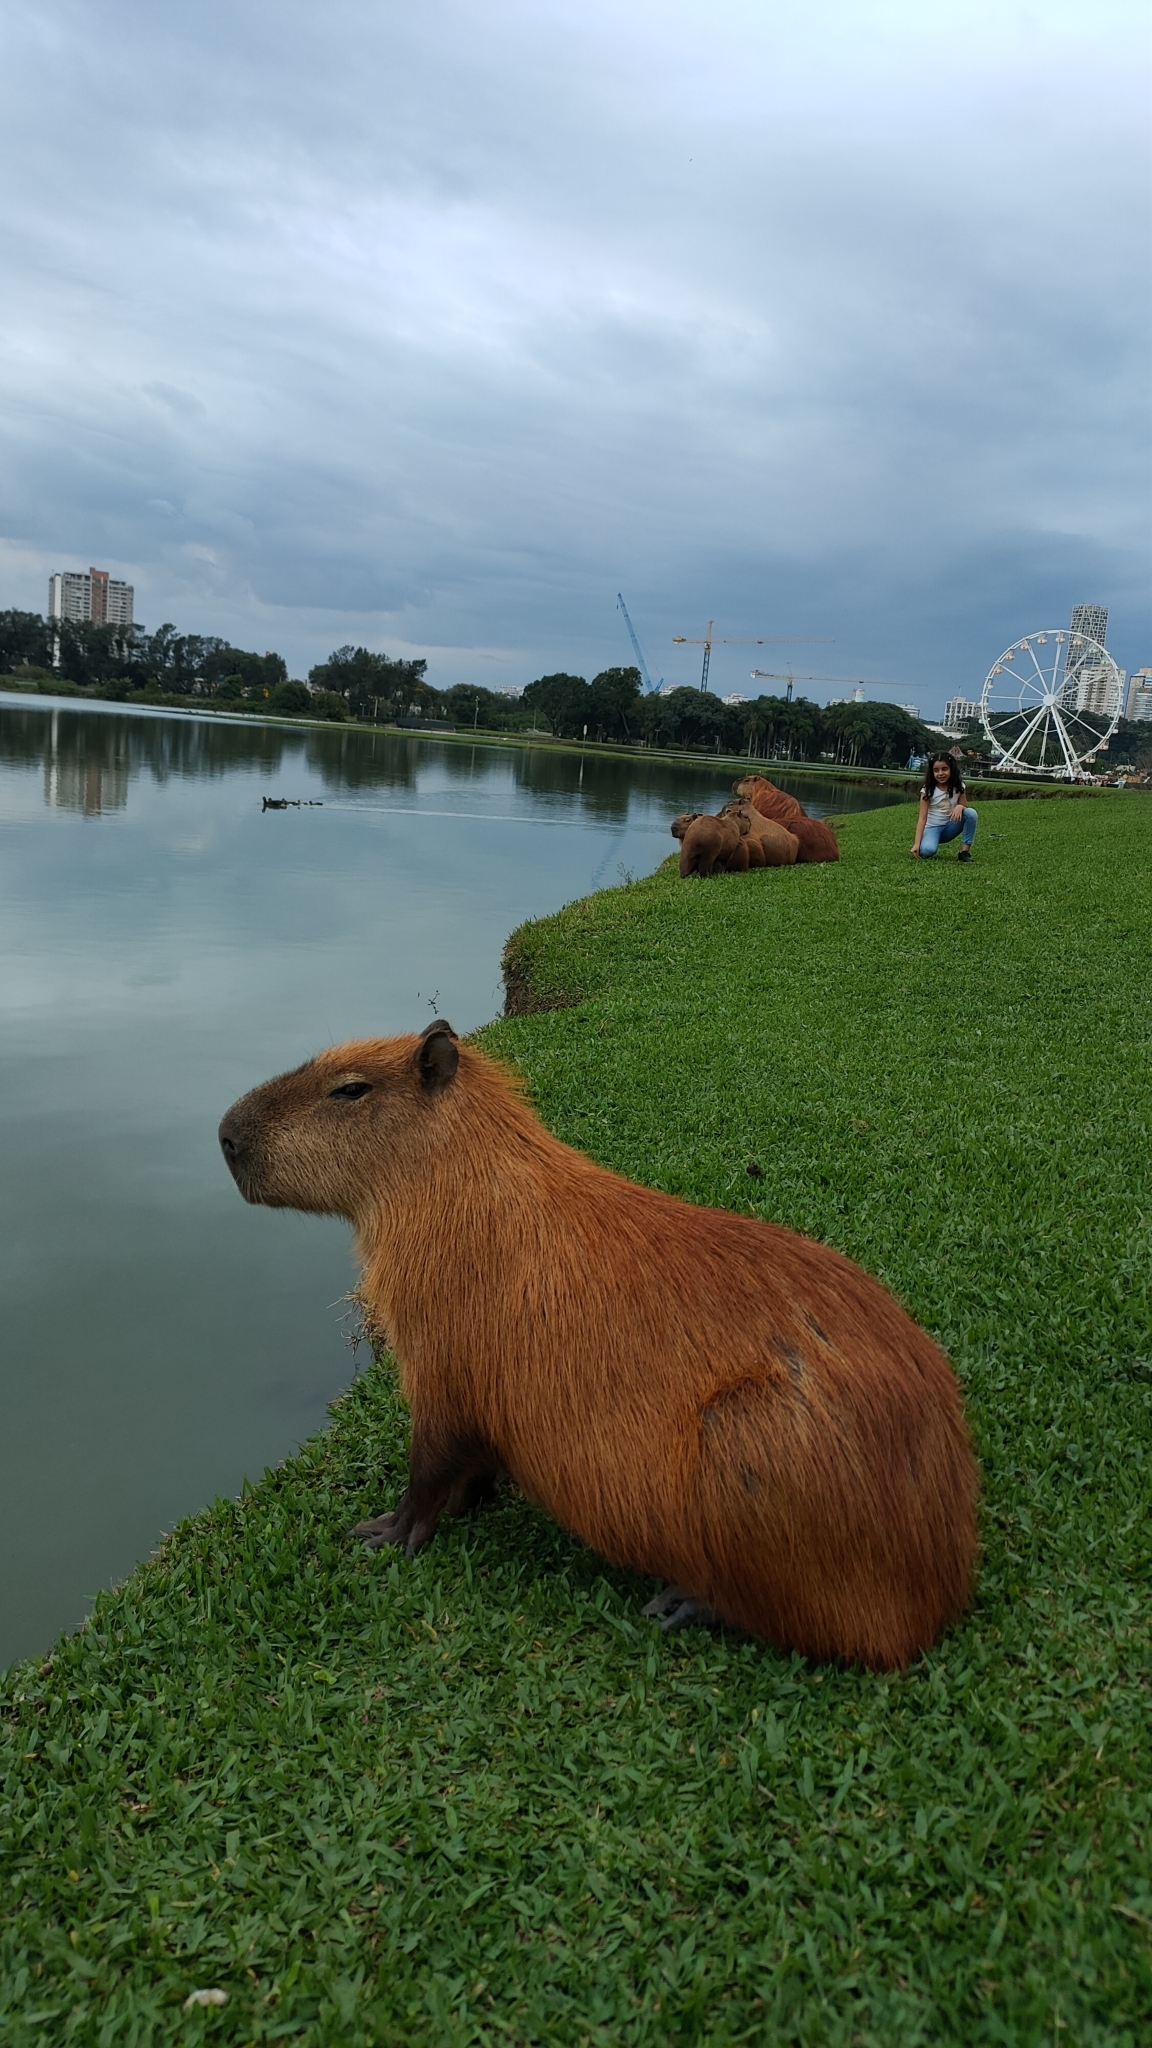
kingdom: Animalia
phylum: Chordata
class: Mammalia
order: Rodentia
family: Caviidae
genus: Hydrochoerus
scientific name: Hydrochoerus hydrochaeris
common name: Capybara
